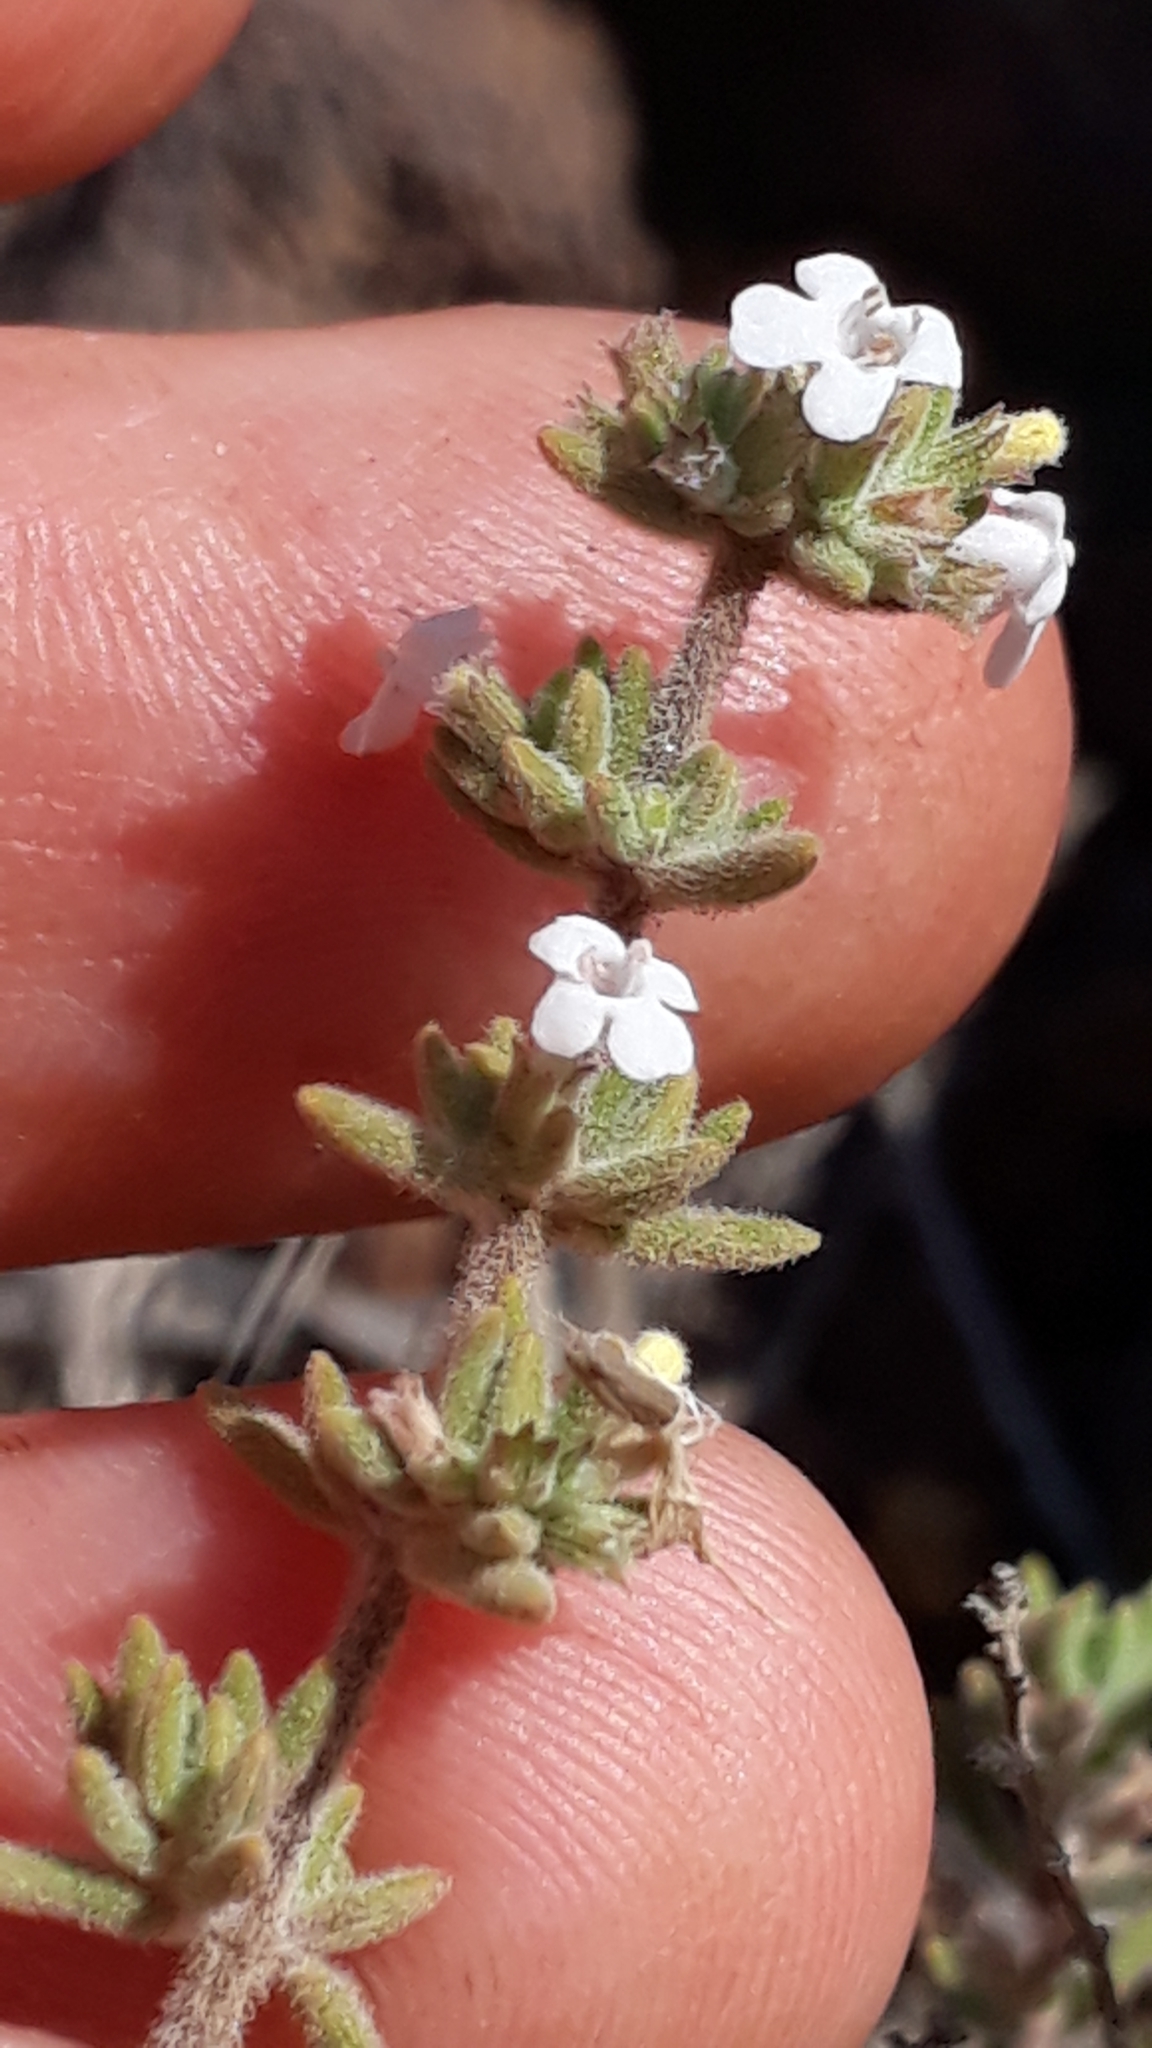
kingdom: Plantae
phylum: Tracheophyta
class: Magnoliopsida
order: Lamiales
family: Lamiaceae
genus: Micromeria
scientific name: Micromeria ericifolia
